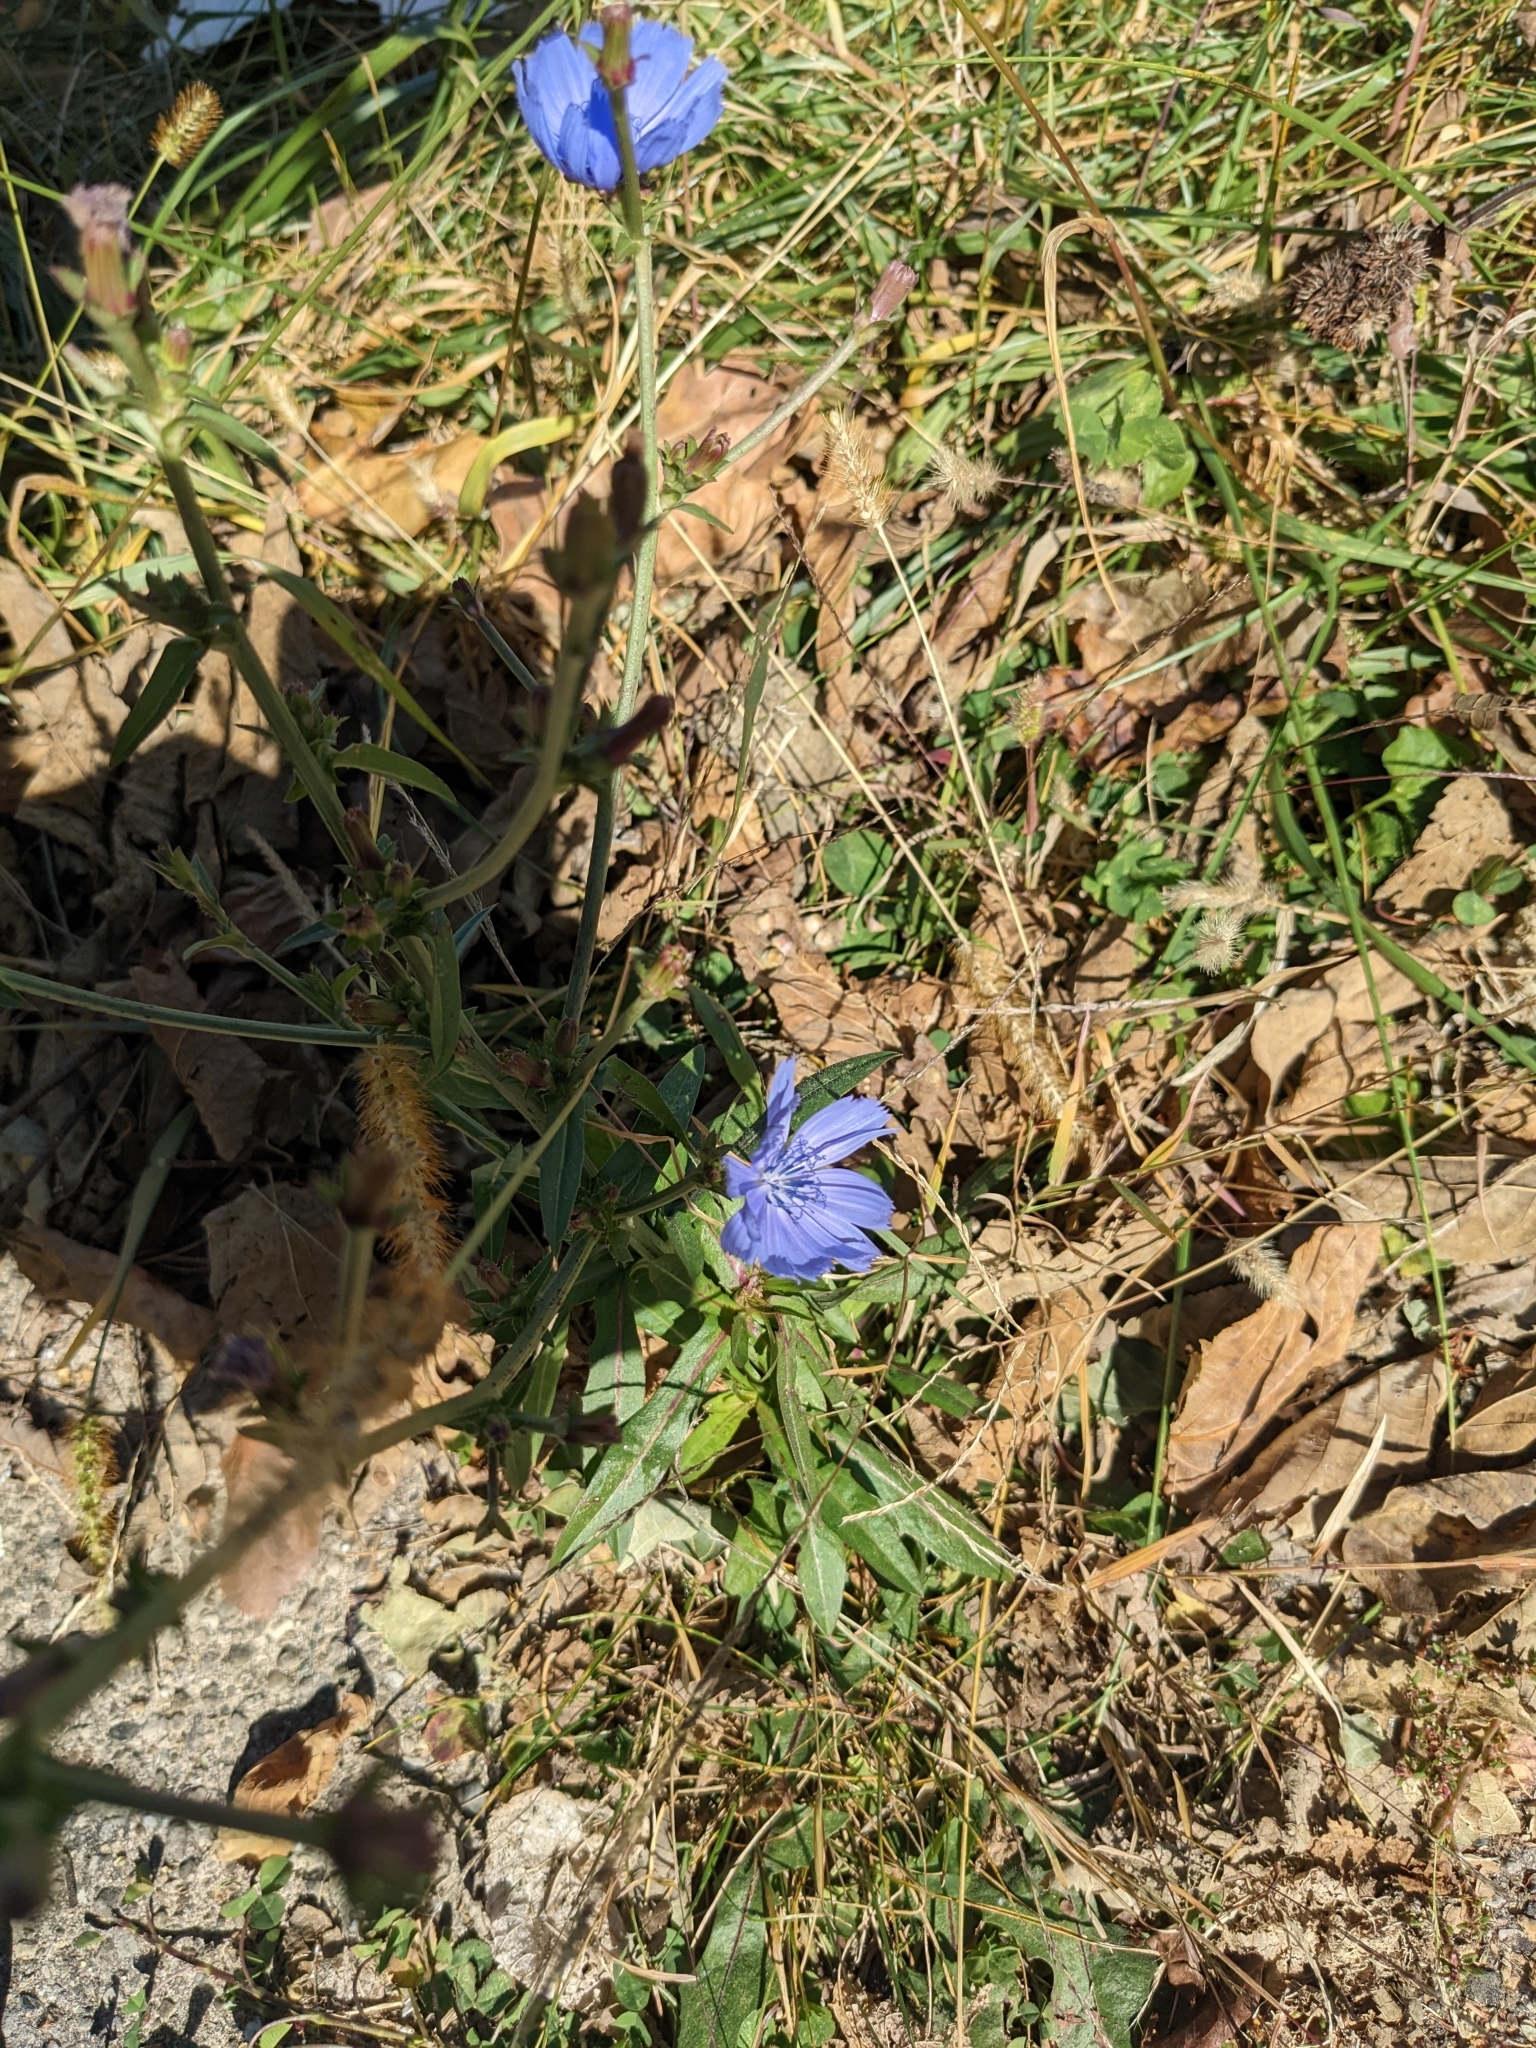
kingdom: Plantae
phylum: Tracheophyta
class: Magnoliopsida
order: Asterales
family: Asteraceae
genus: Cichorium
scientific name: Cichorium intybus
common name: Chicory
